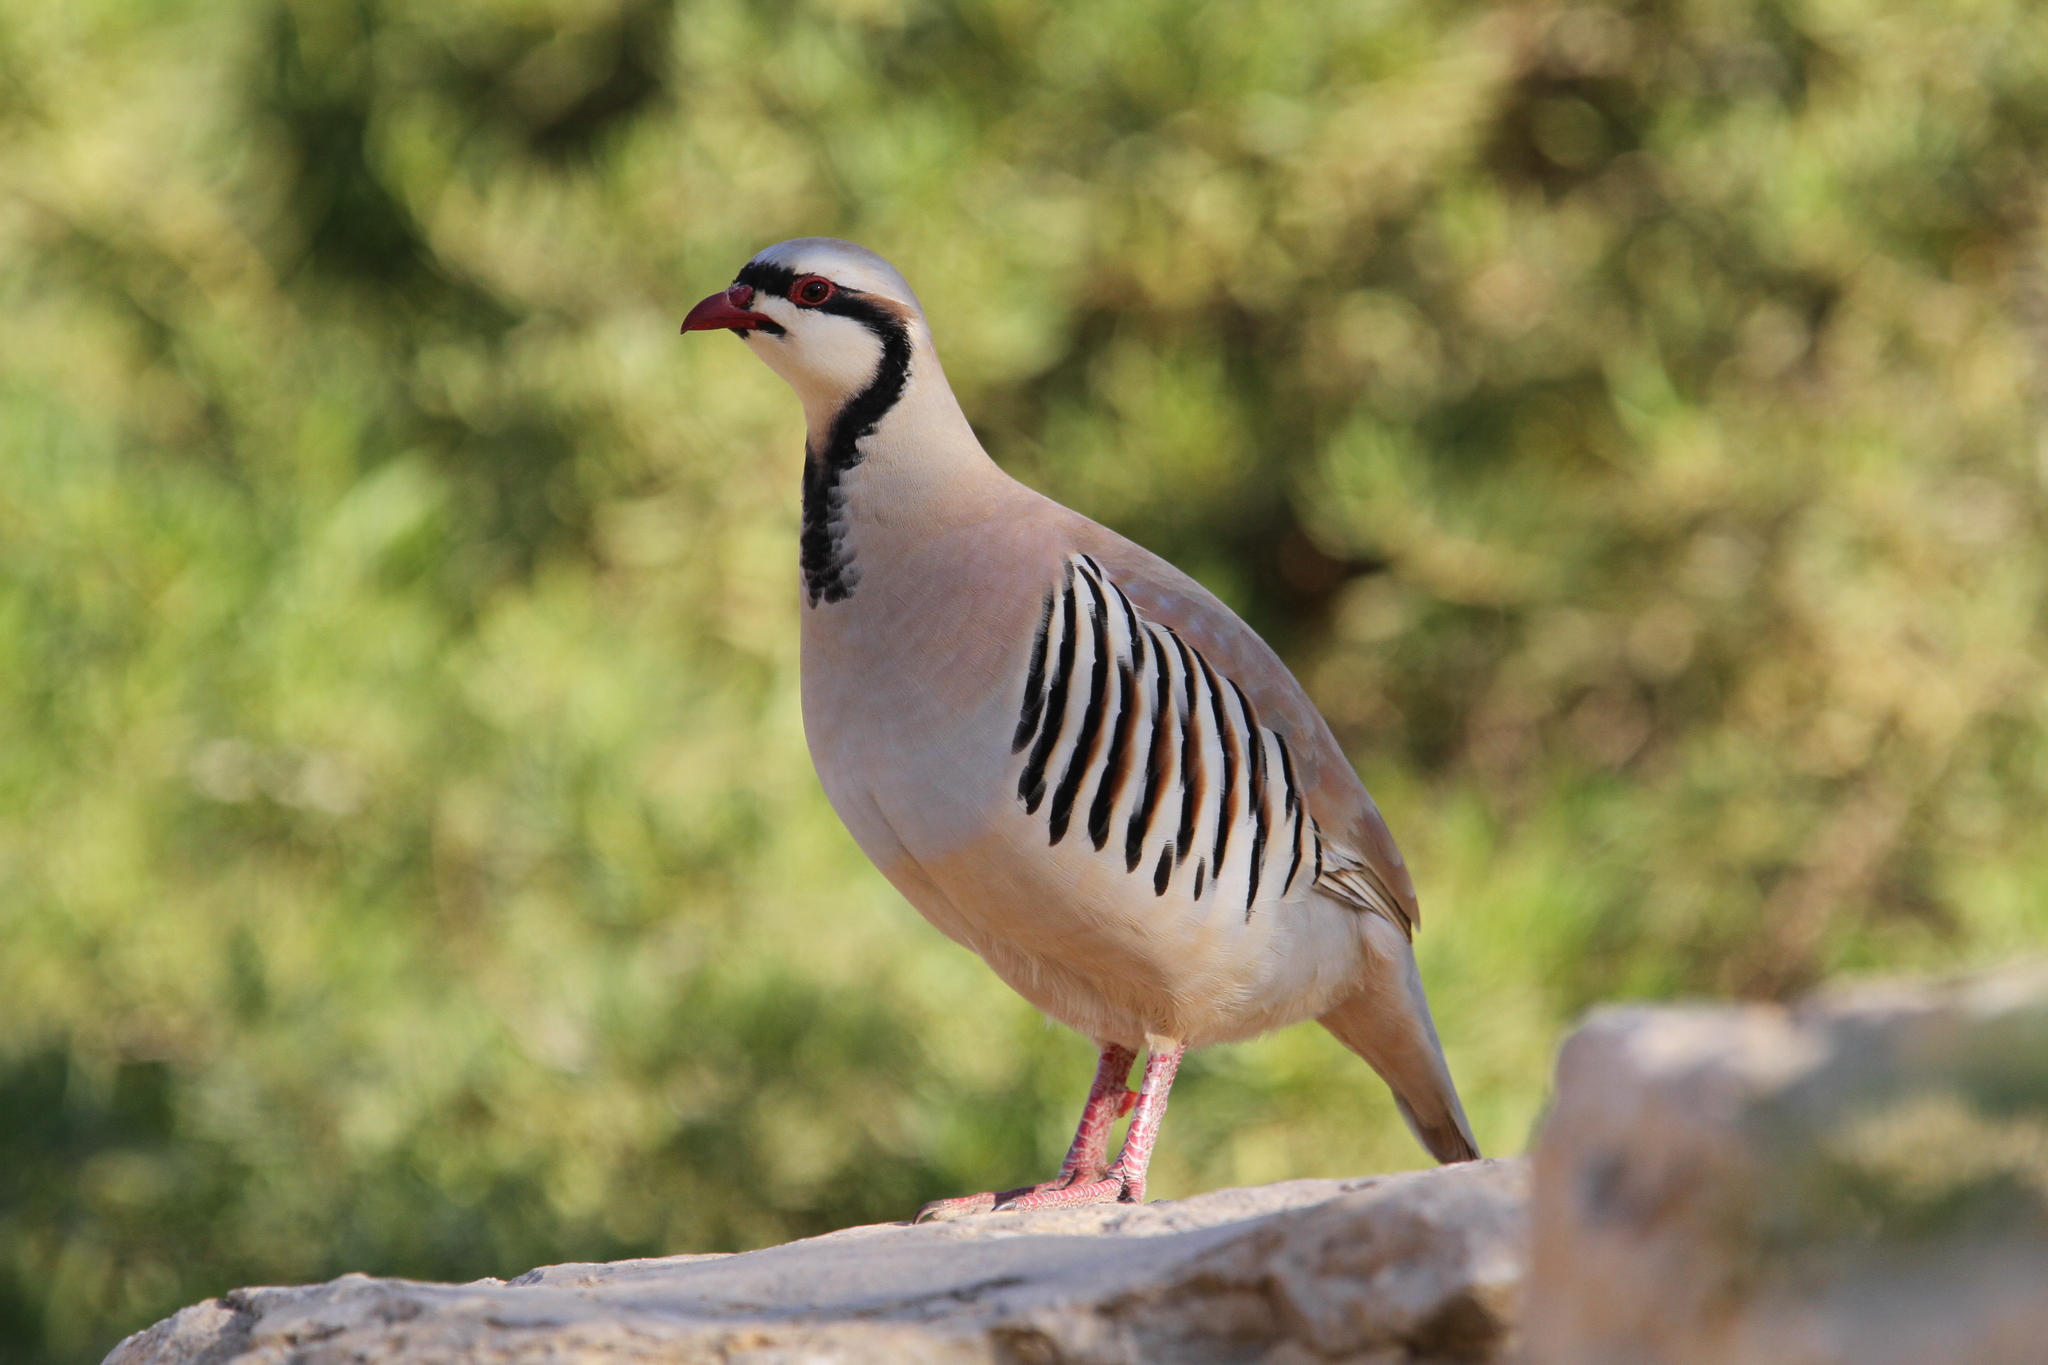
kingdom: Animalia
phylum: Chordata
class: Aves
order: Galliformes
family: Phasianidae
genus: Alectoris
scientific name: Alectoris chukar
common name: Chukar
